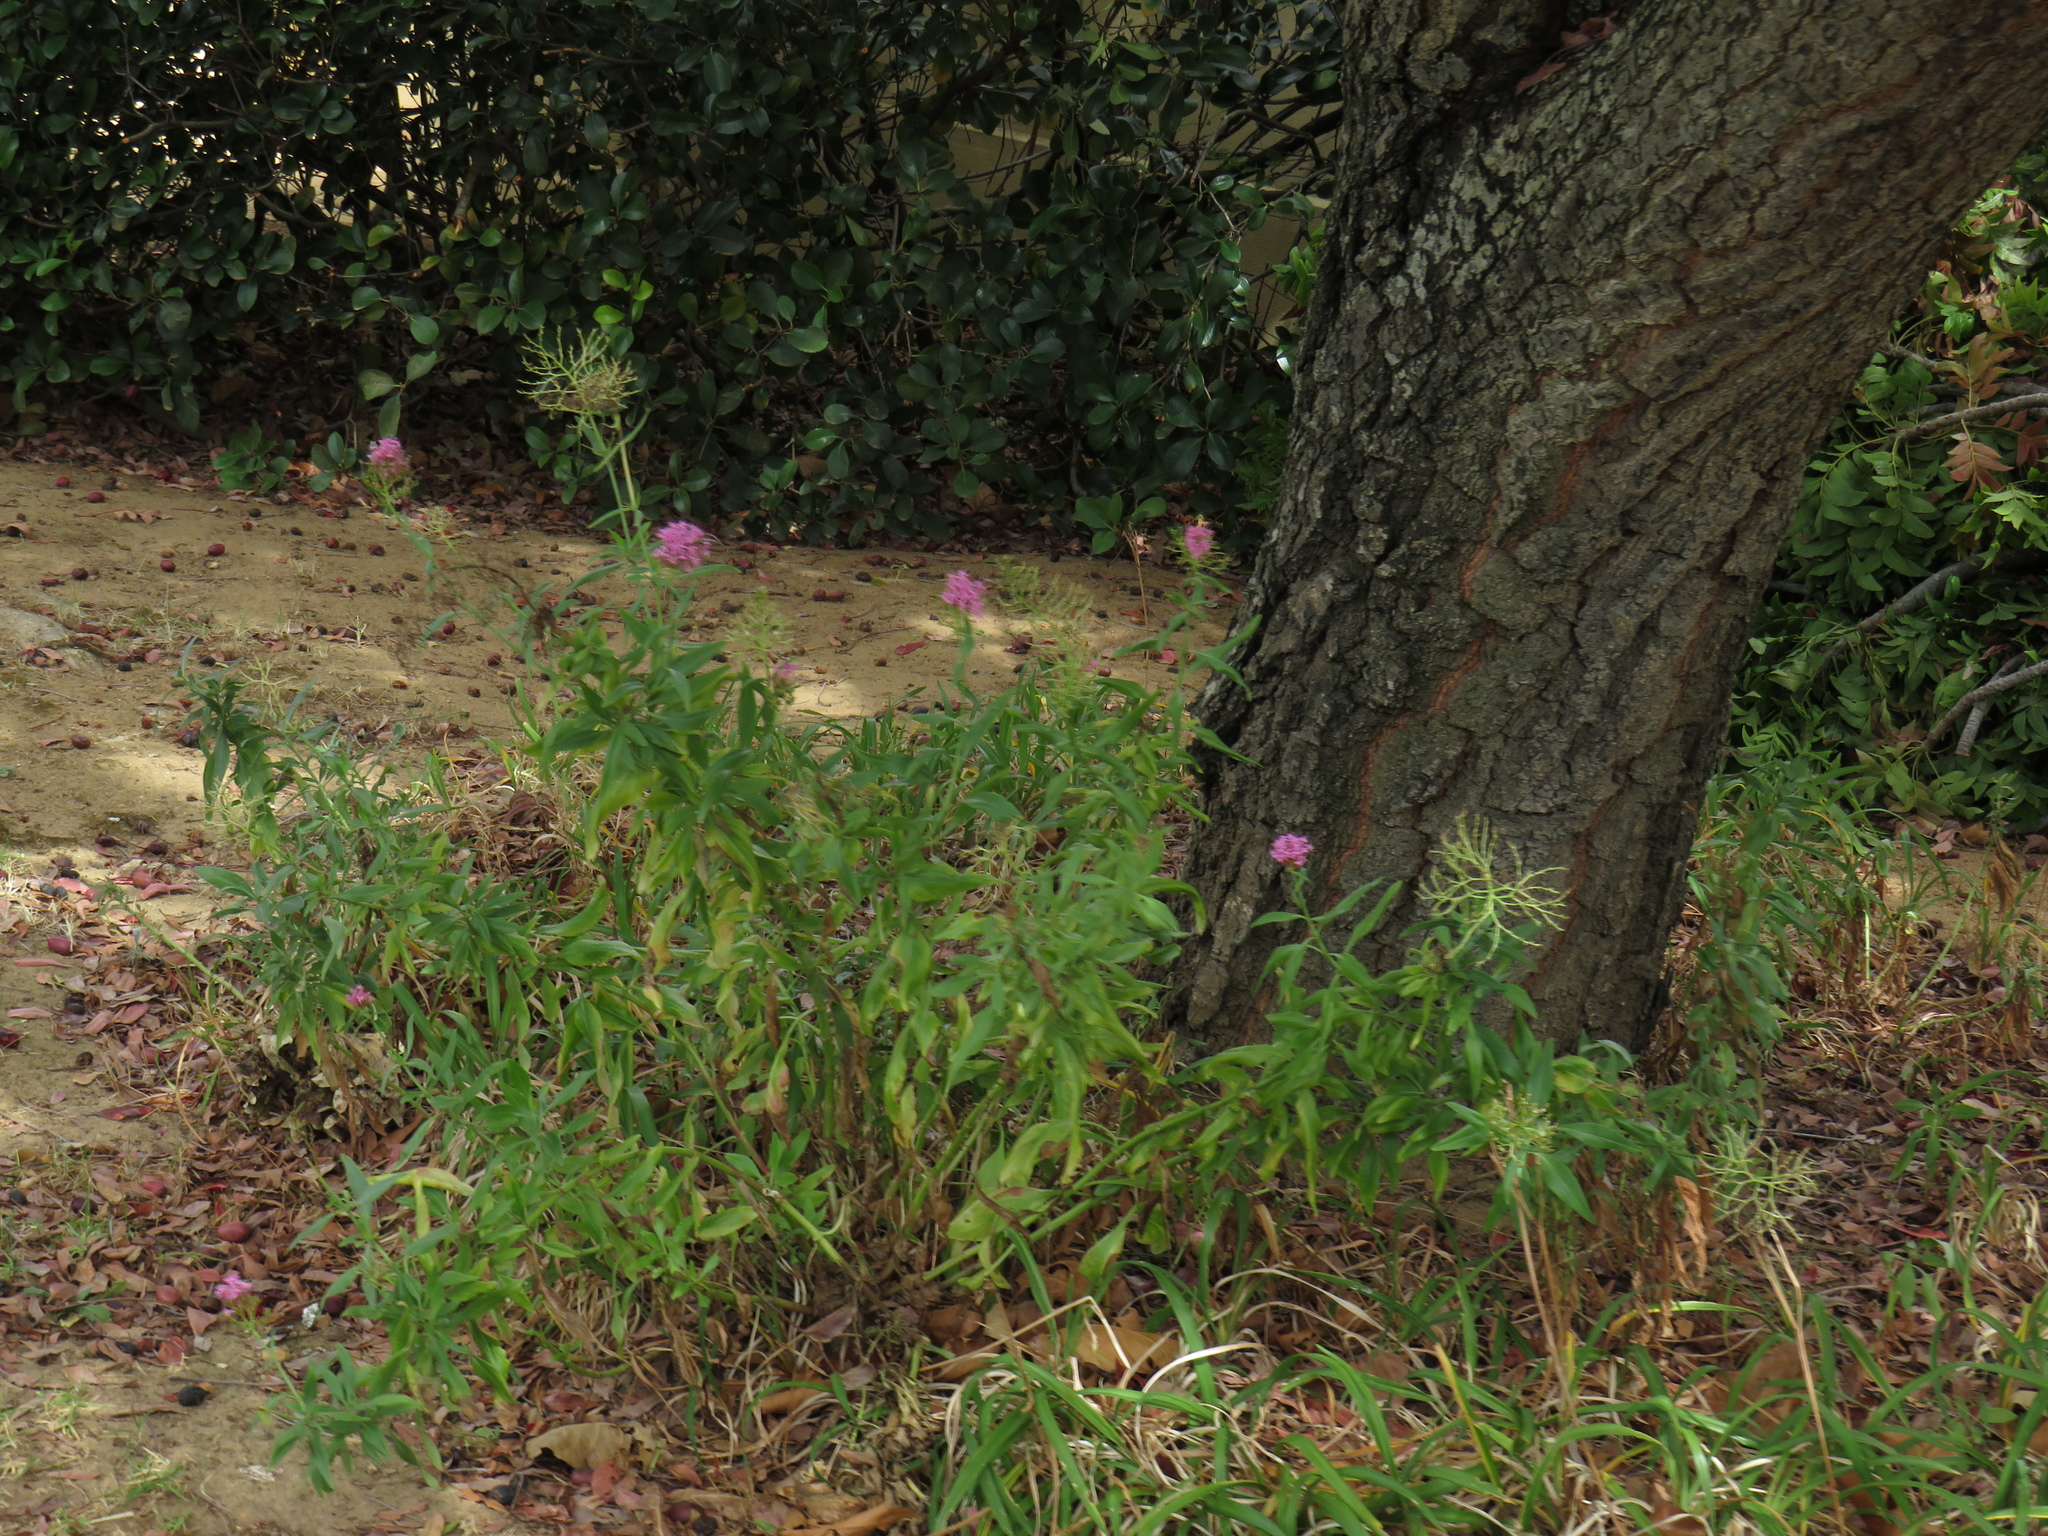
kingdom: Plantae
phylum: Tracheophyta
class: Magnoliopsida
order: Dipsacales
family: Caprifoliaceae
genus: Centranthus
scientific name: Centranthus ruber
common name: Red valerian
